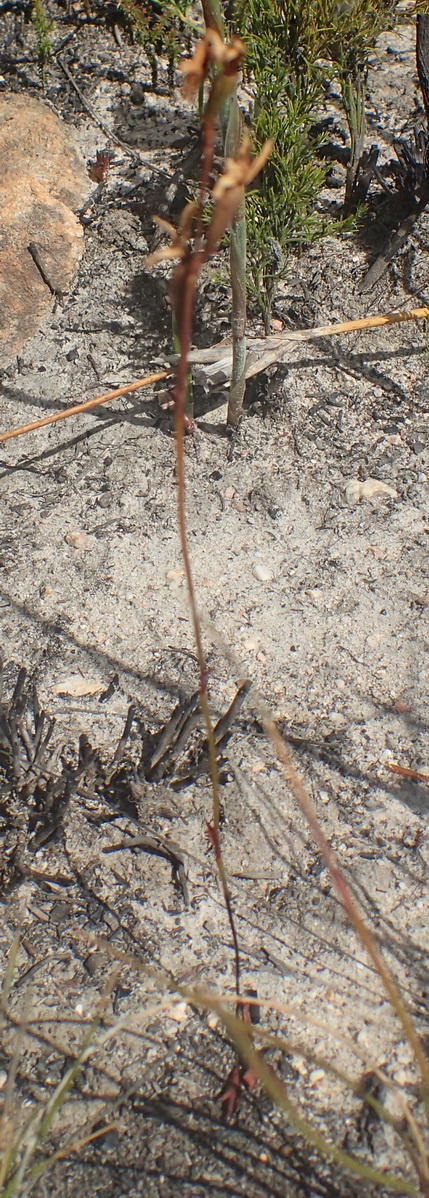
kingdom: Plantae
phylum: Tracheophyta
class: Liliopsida
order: Asparagales
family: Orchidaceae
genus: Disa
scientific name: Disa inflexa
